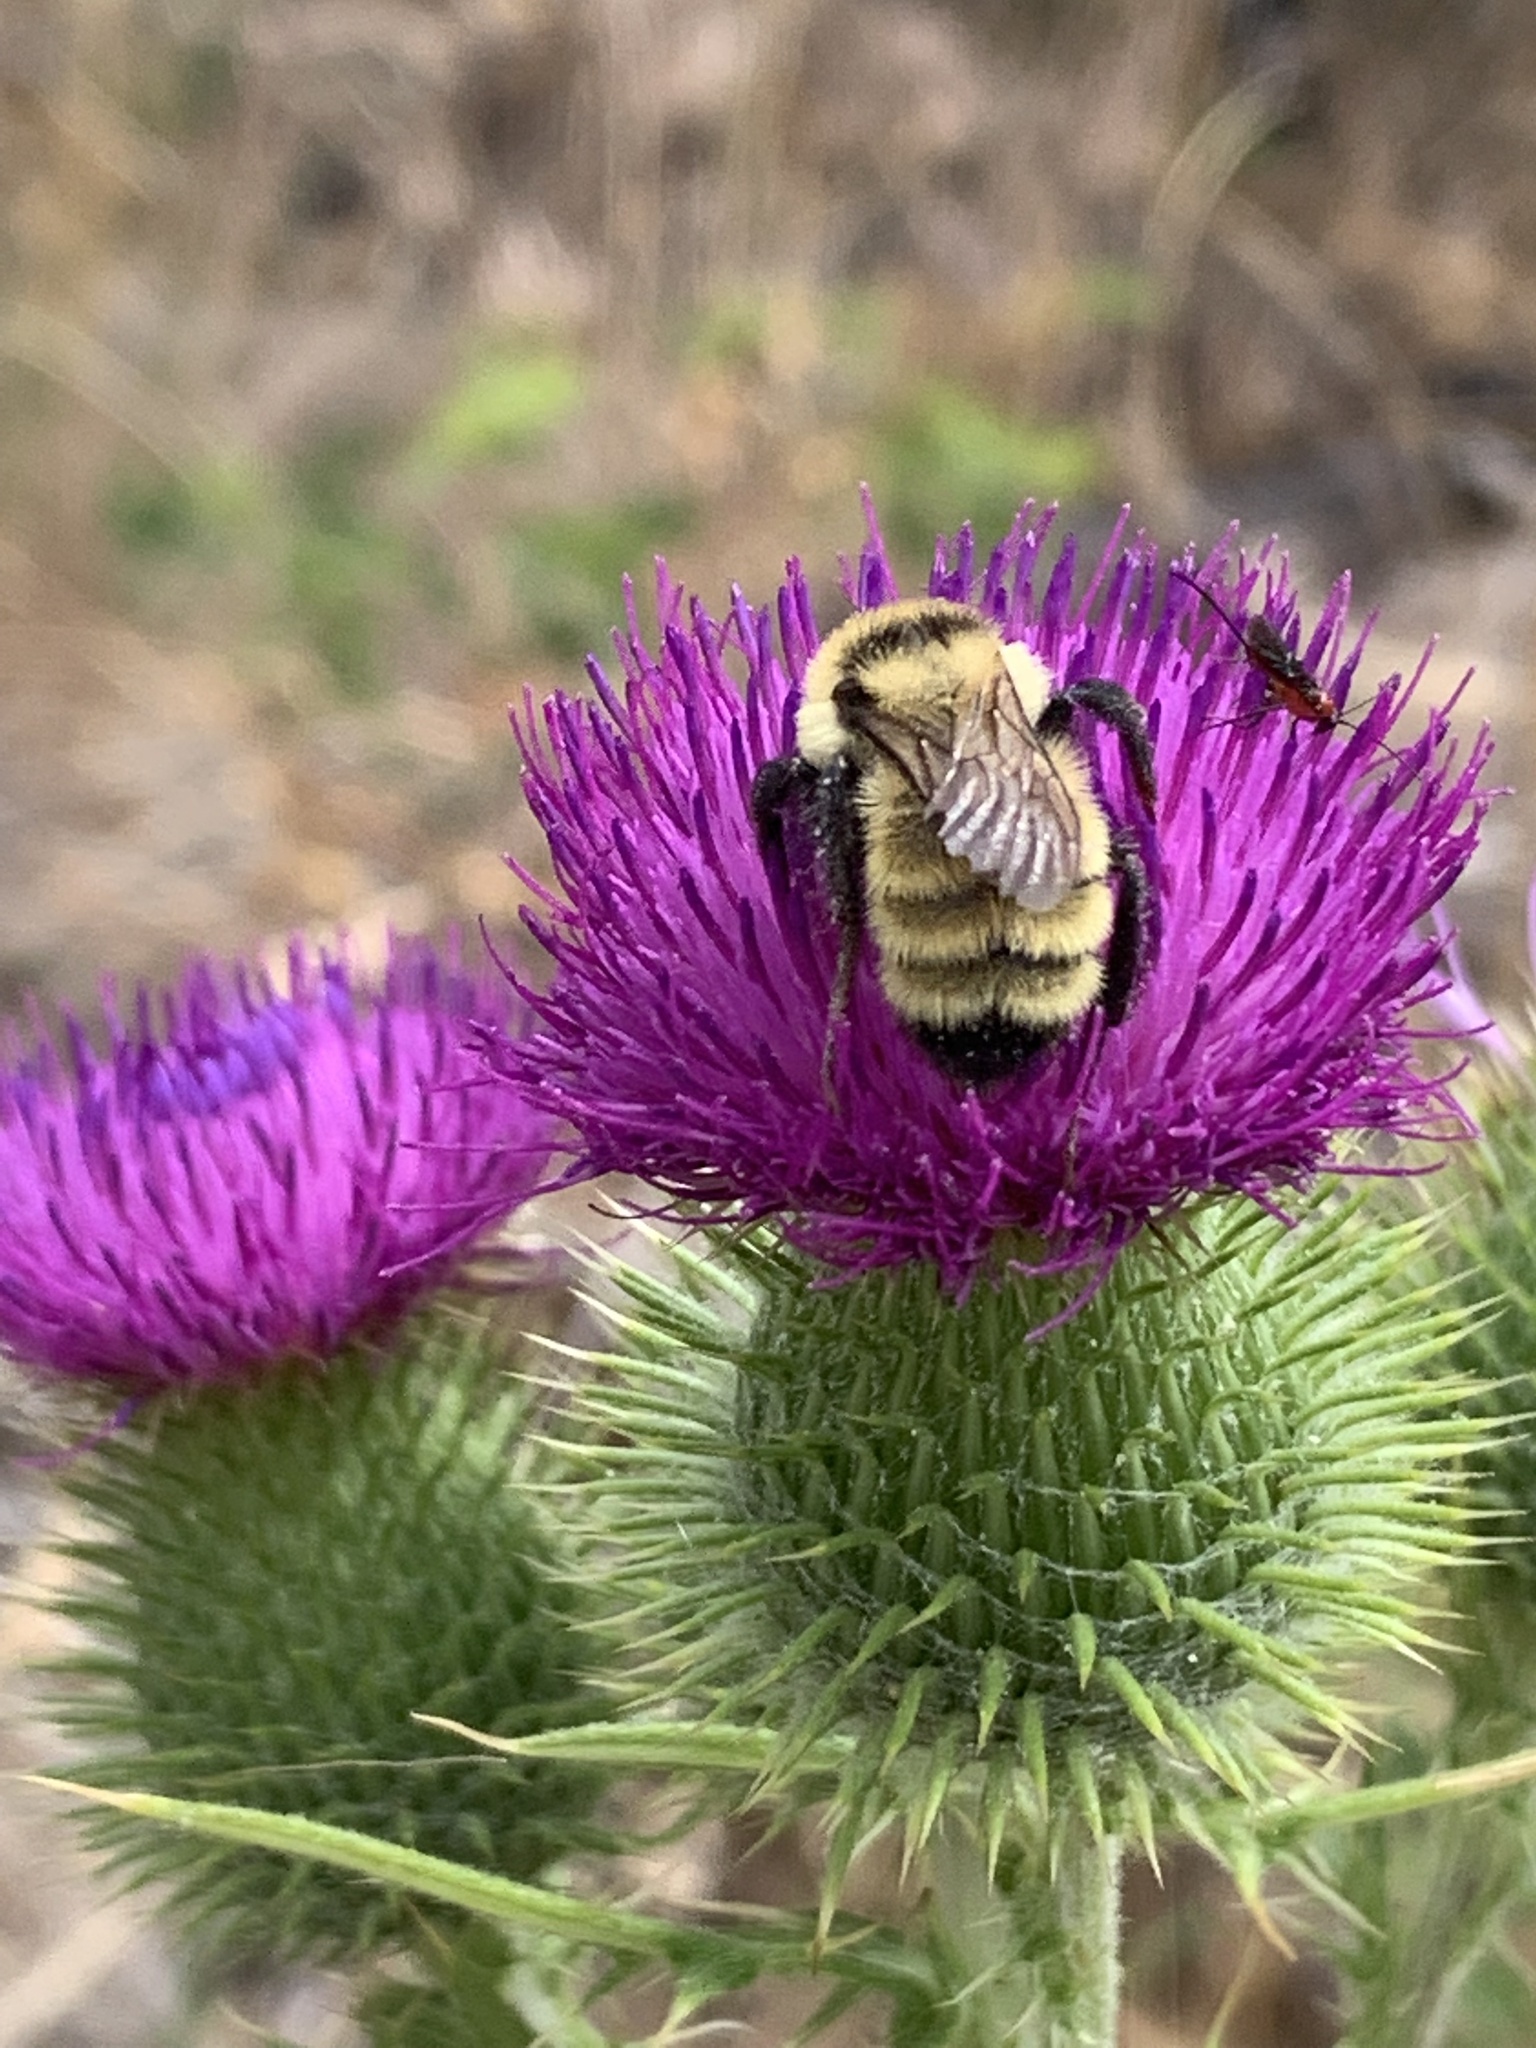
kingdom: Animalia
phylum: Arthropoda
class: Insecta
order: Hymenoptera
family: Apidae
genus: Bombus
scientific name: Bombus fervidus
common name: Yellow bumble bee
